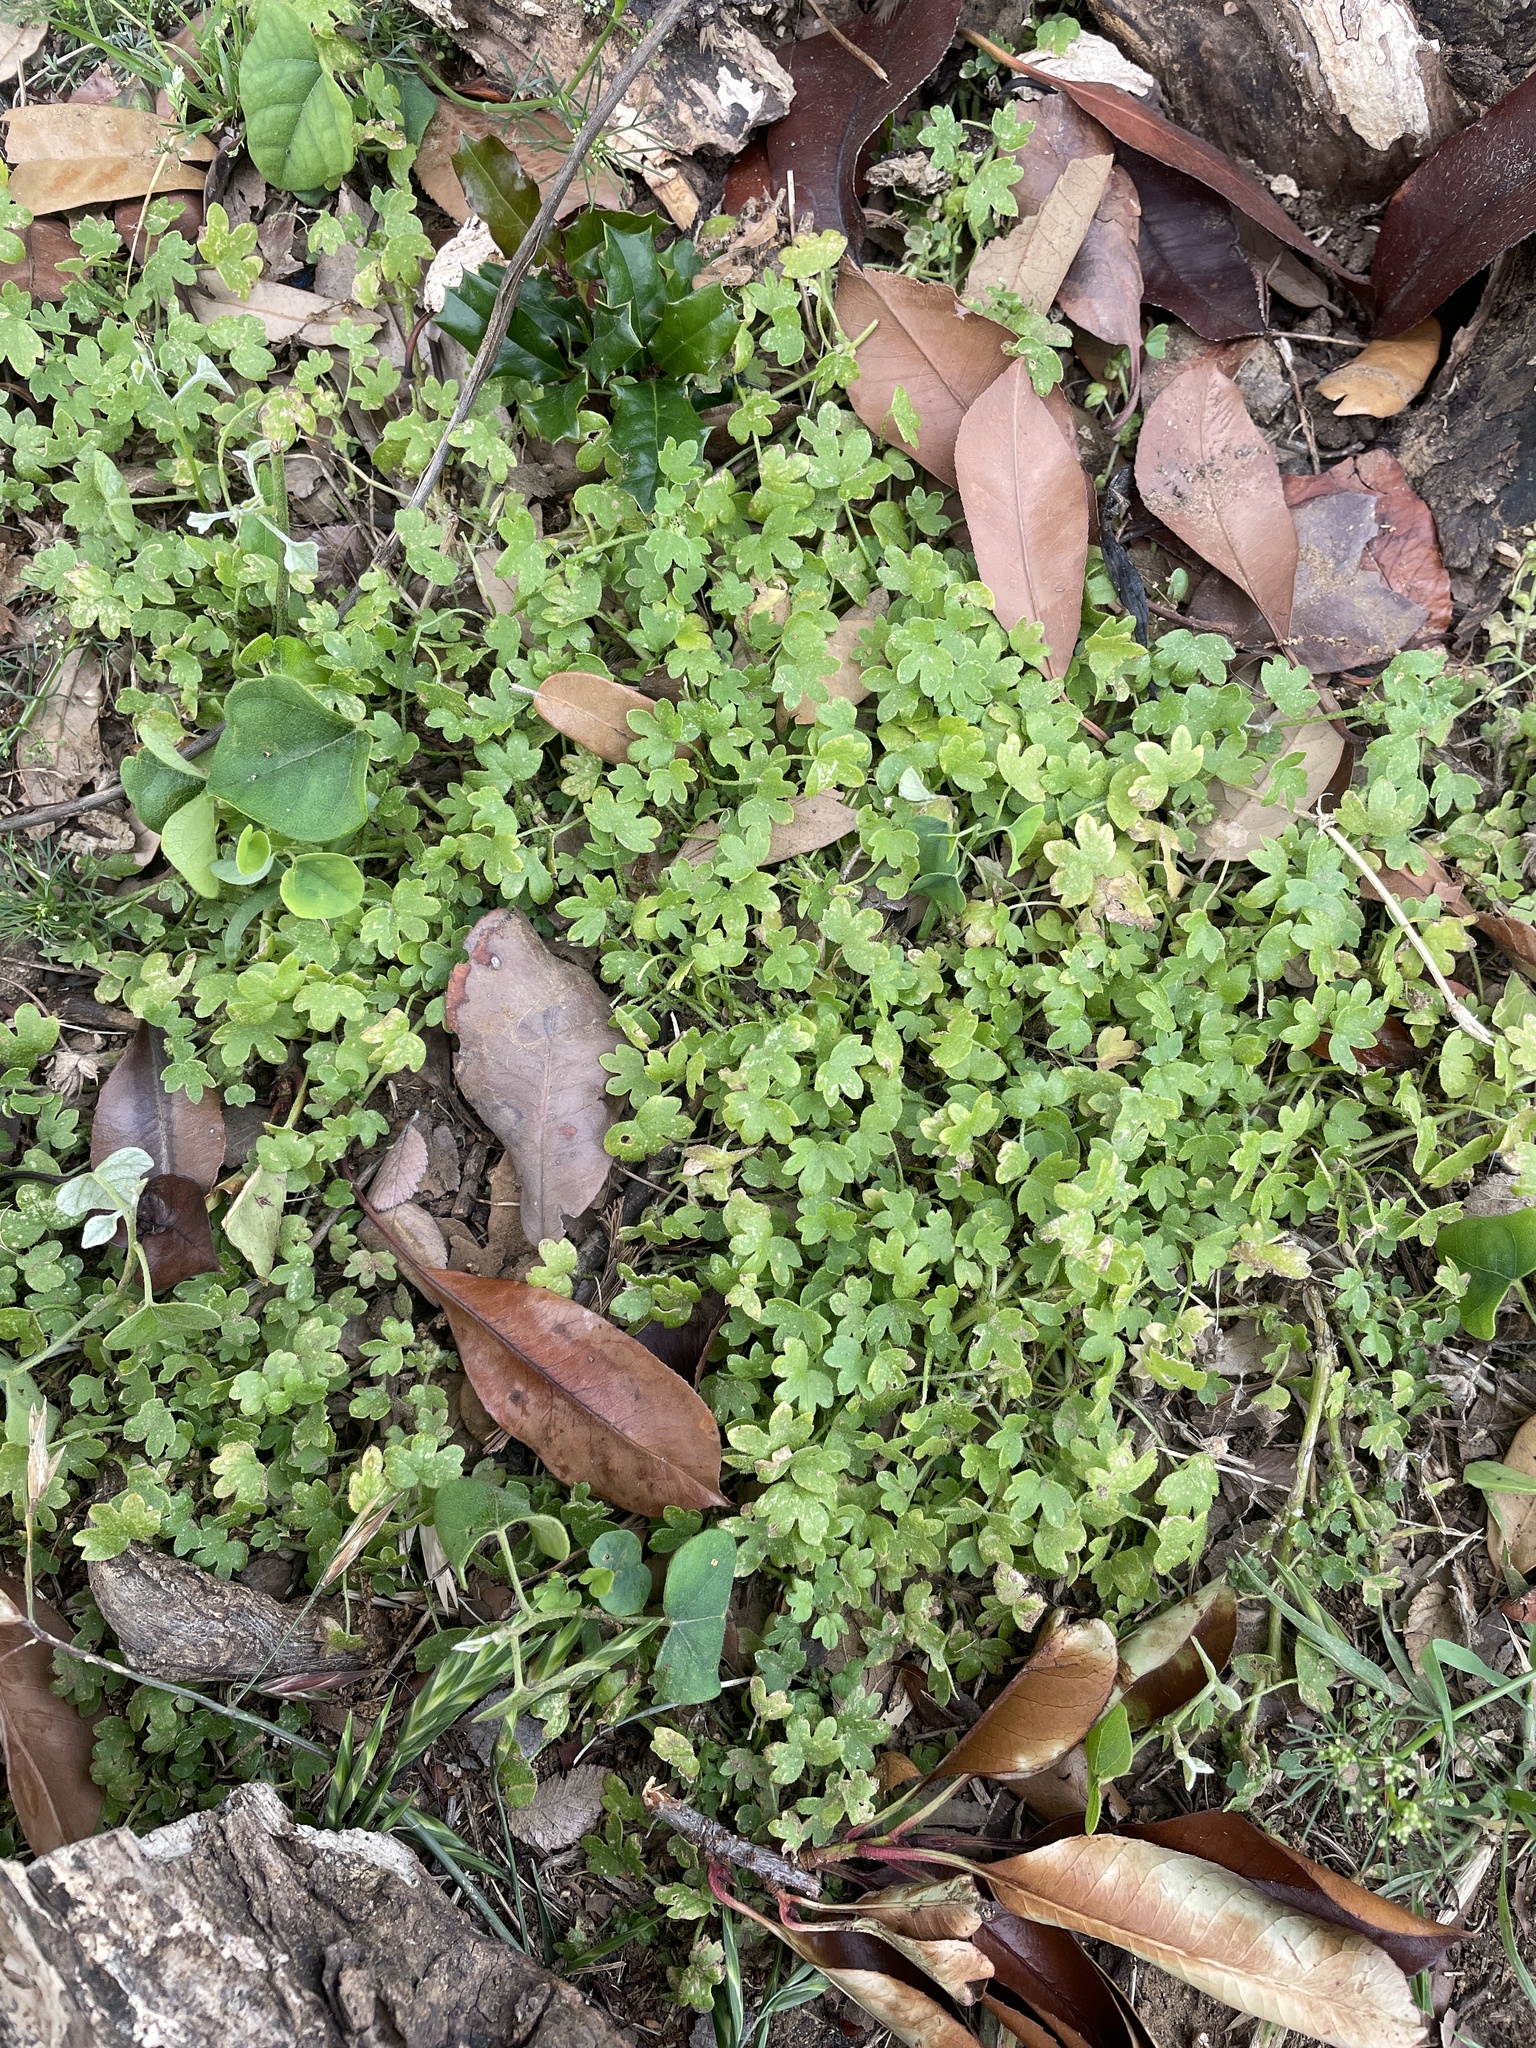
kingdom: Plantae
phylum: Tracheophyta
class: Magnoliopsida
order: Apiales
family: Apiaceae
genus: Bowlesia
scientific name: Bowlesia incana
